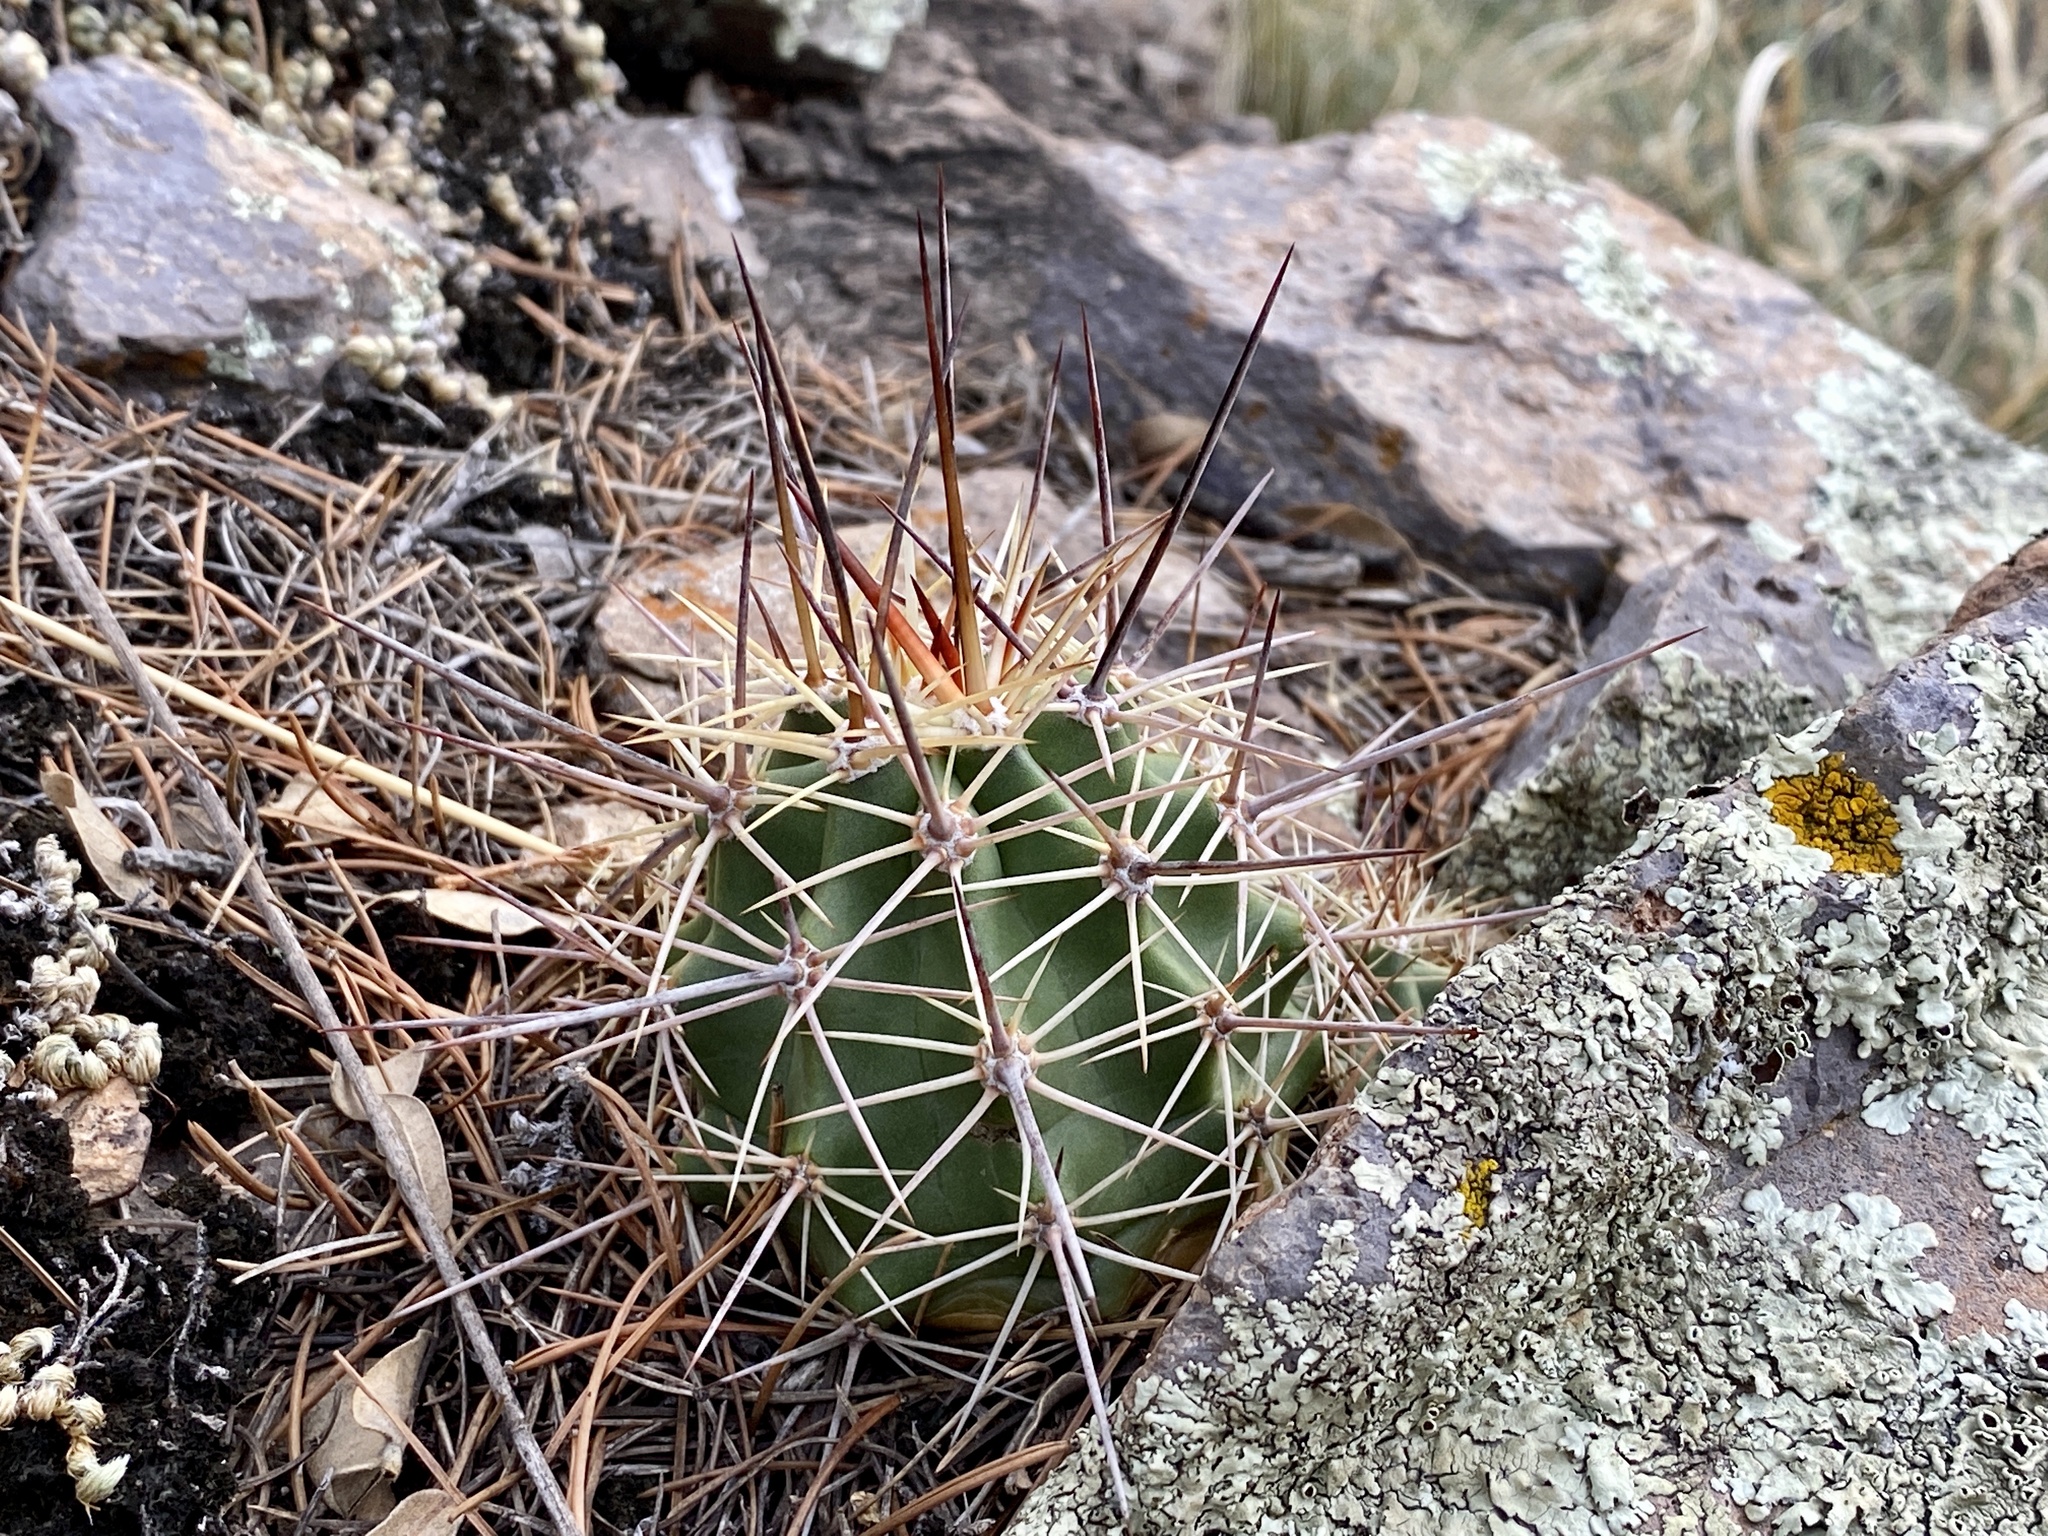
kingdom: Plantae
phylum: Tracheophyta
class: Magnoliopsida
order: Caryophyllales
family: Cactaceae
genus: Echinocereus
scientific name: Echinocereus coccineus
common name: Scarlet hedgehog cactus
